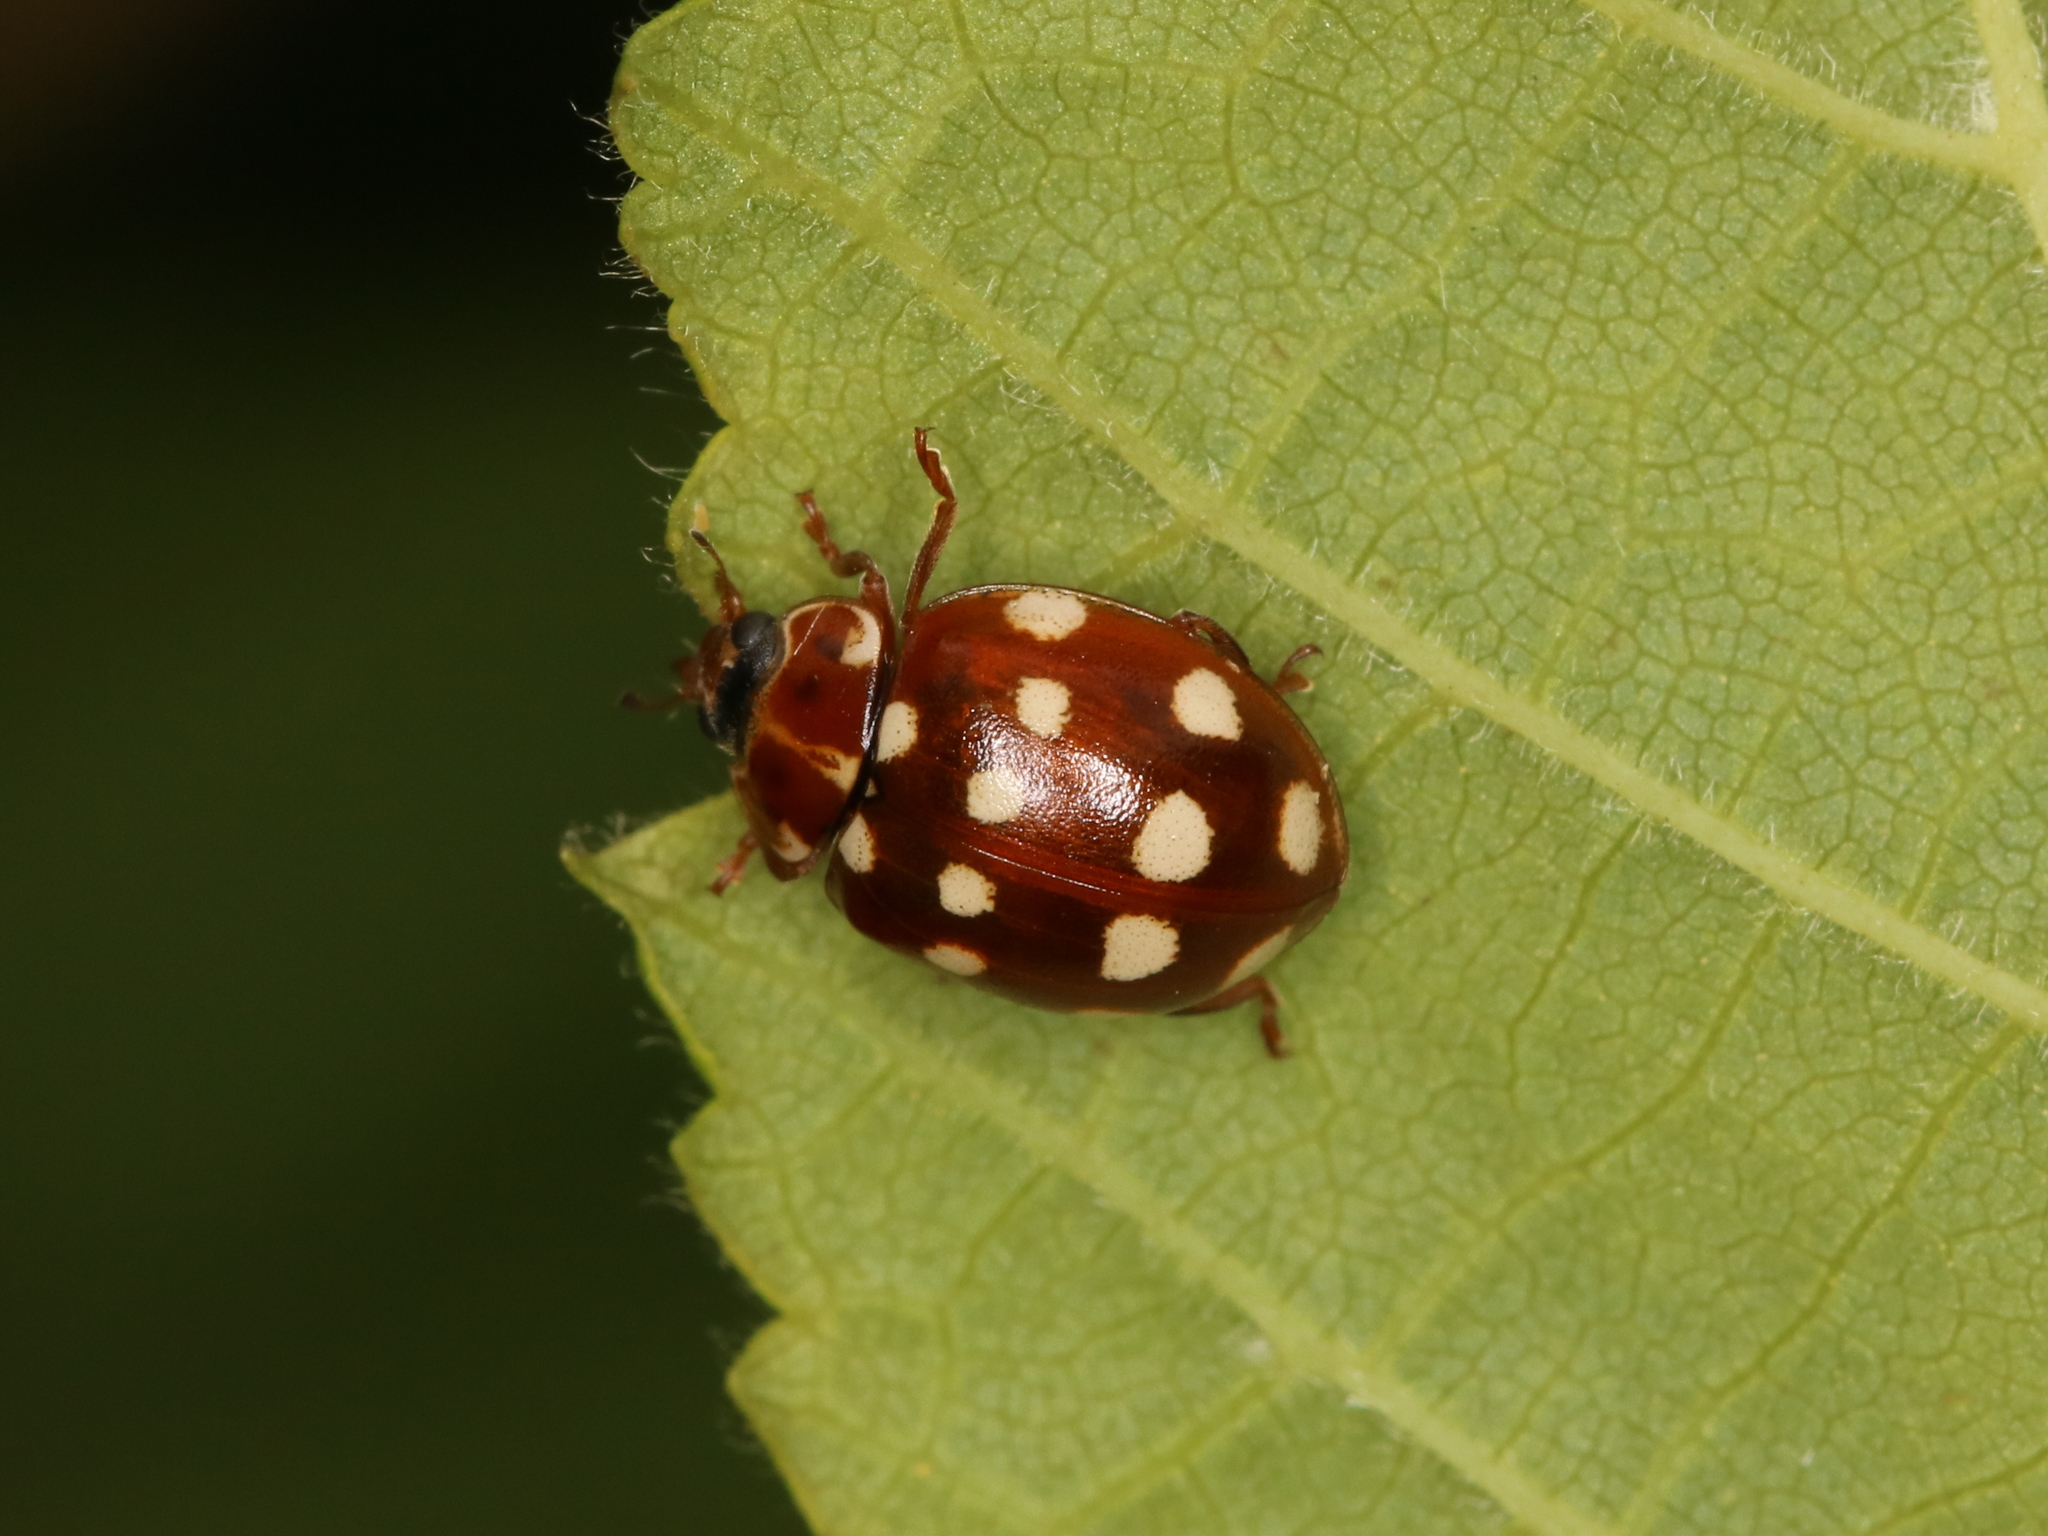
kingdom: Animalia
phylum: Arthropoda
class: Insecta
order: Coleoptera
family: Coccinellidae
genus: Calvia
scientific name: Calvia quatuordecimguttata
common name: Cream-spot ladybird
